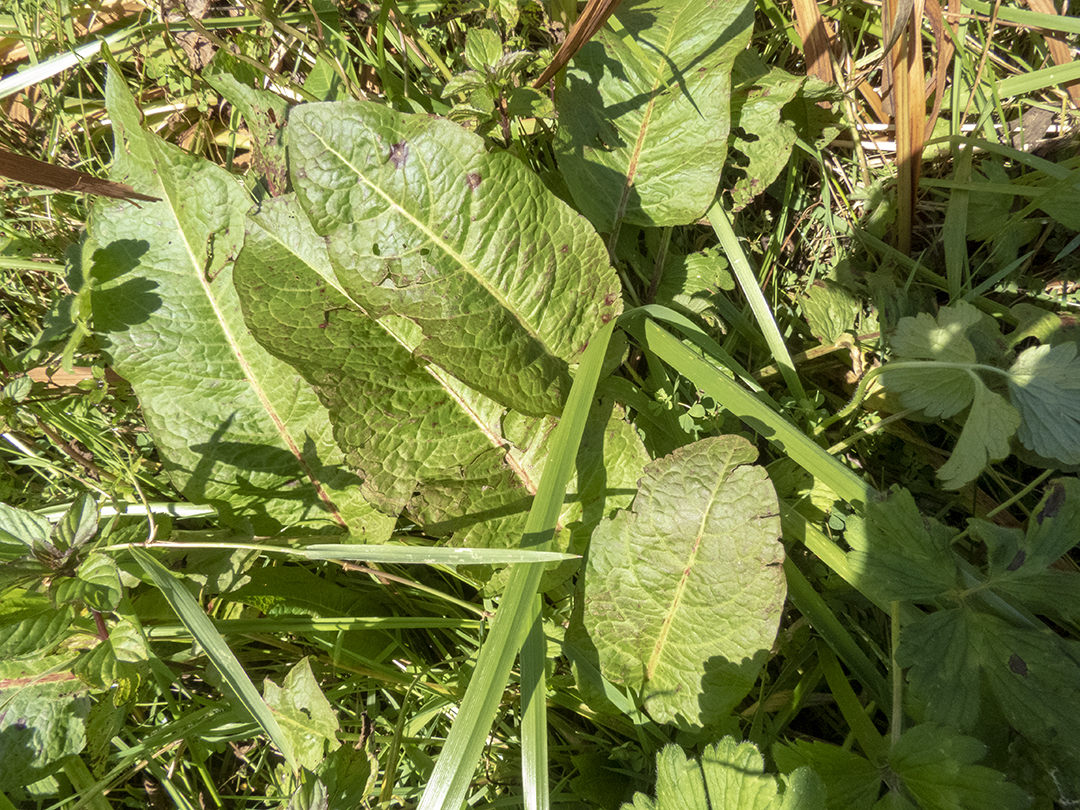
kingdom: Plantae
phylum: Tracheophyta
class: Magnoliopsida
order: Caryophyllales
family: Polygonaceae
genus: Rumex
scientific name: Rumex obtusifolius
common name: Bitter dock
